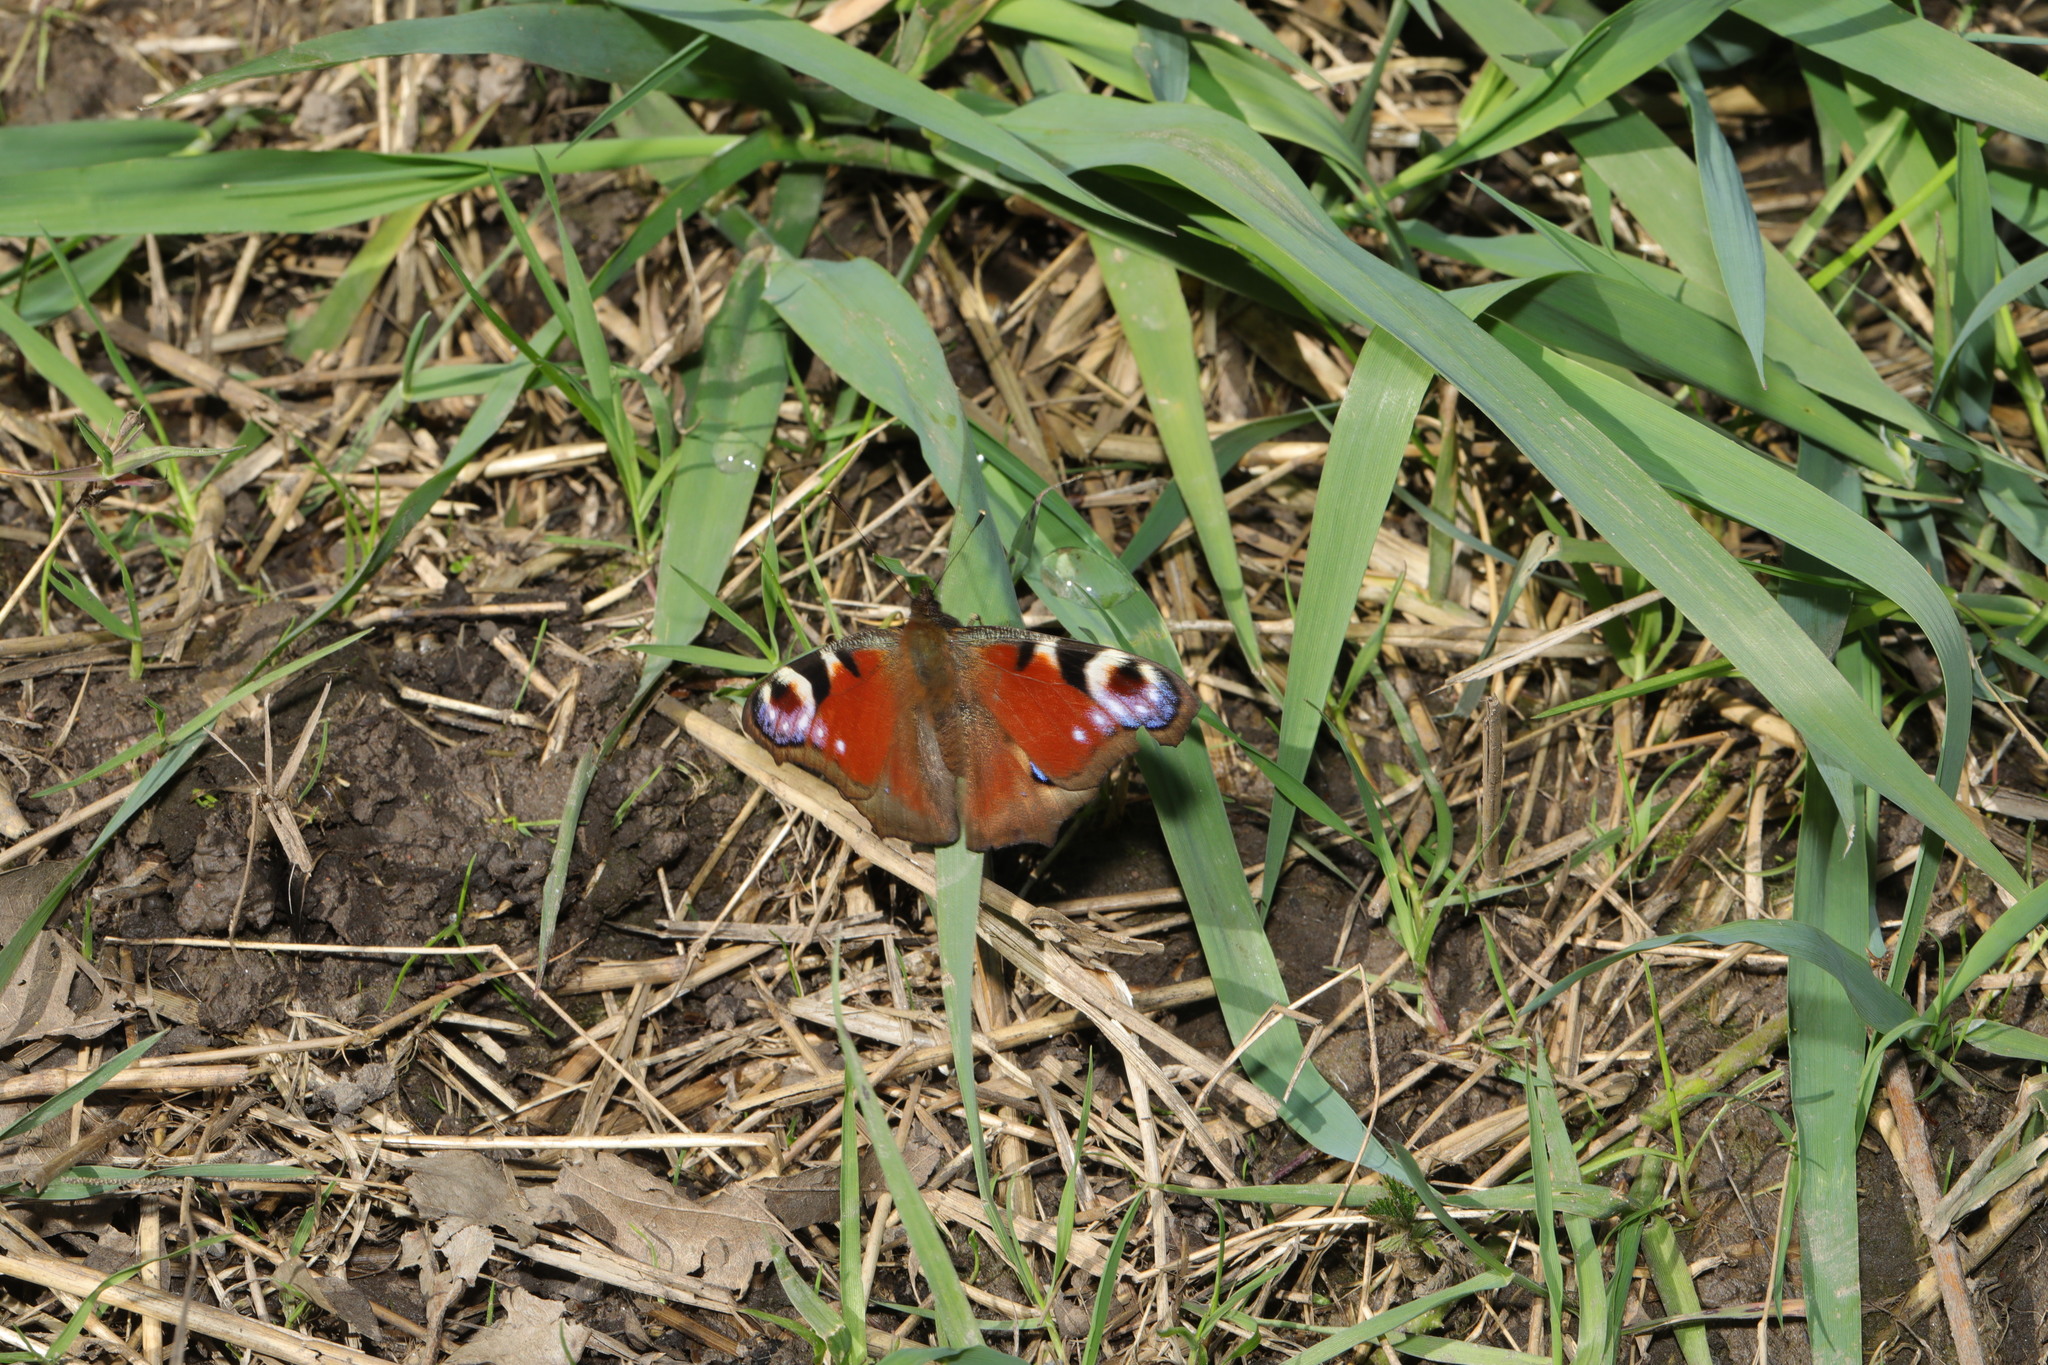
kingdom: Animalia
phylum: Arthropoda
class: Insecta
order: Lepidoptera
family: Nymphalidae
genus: Aglais
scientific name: Aglais io
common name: Peacock
